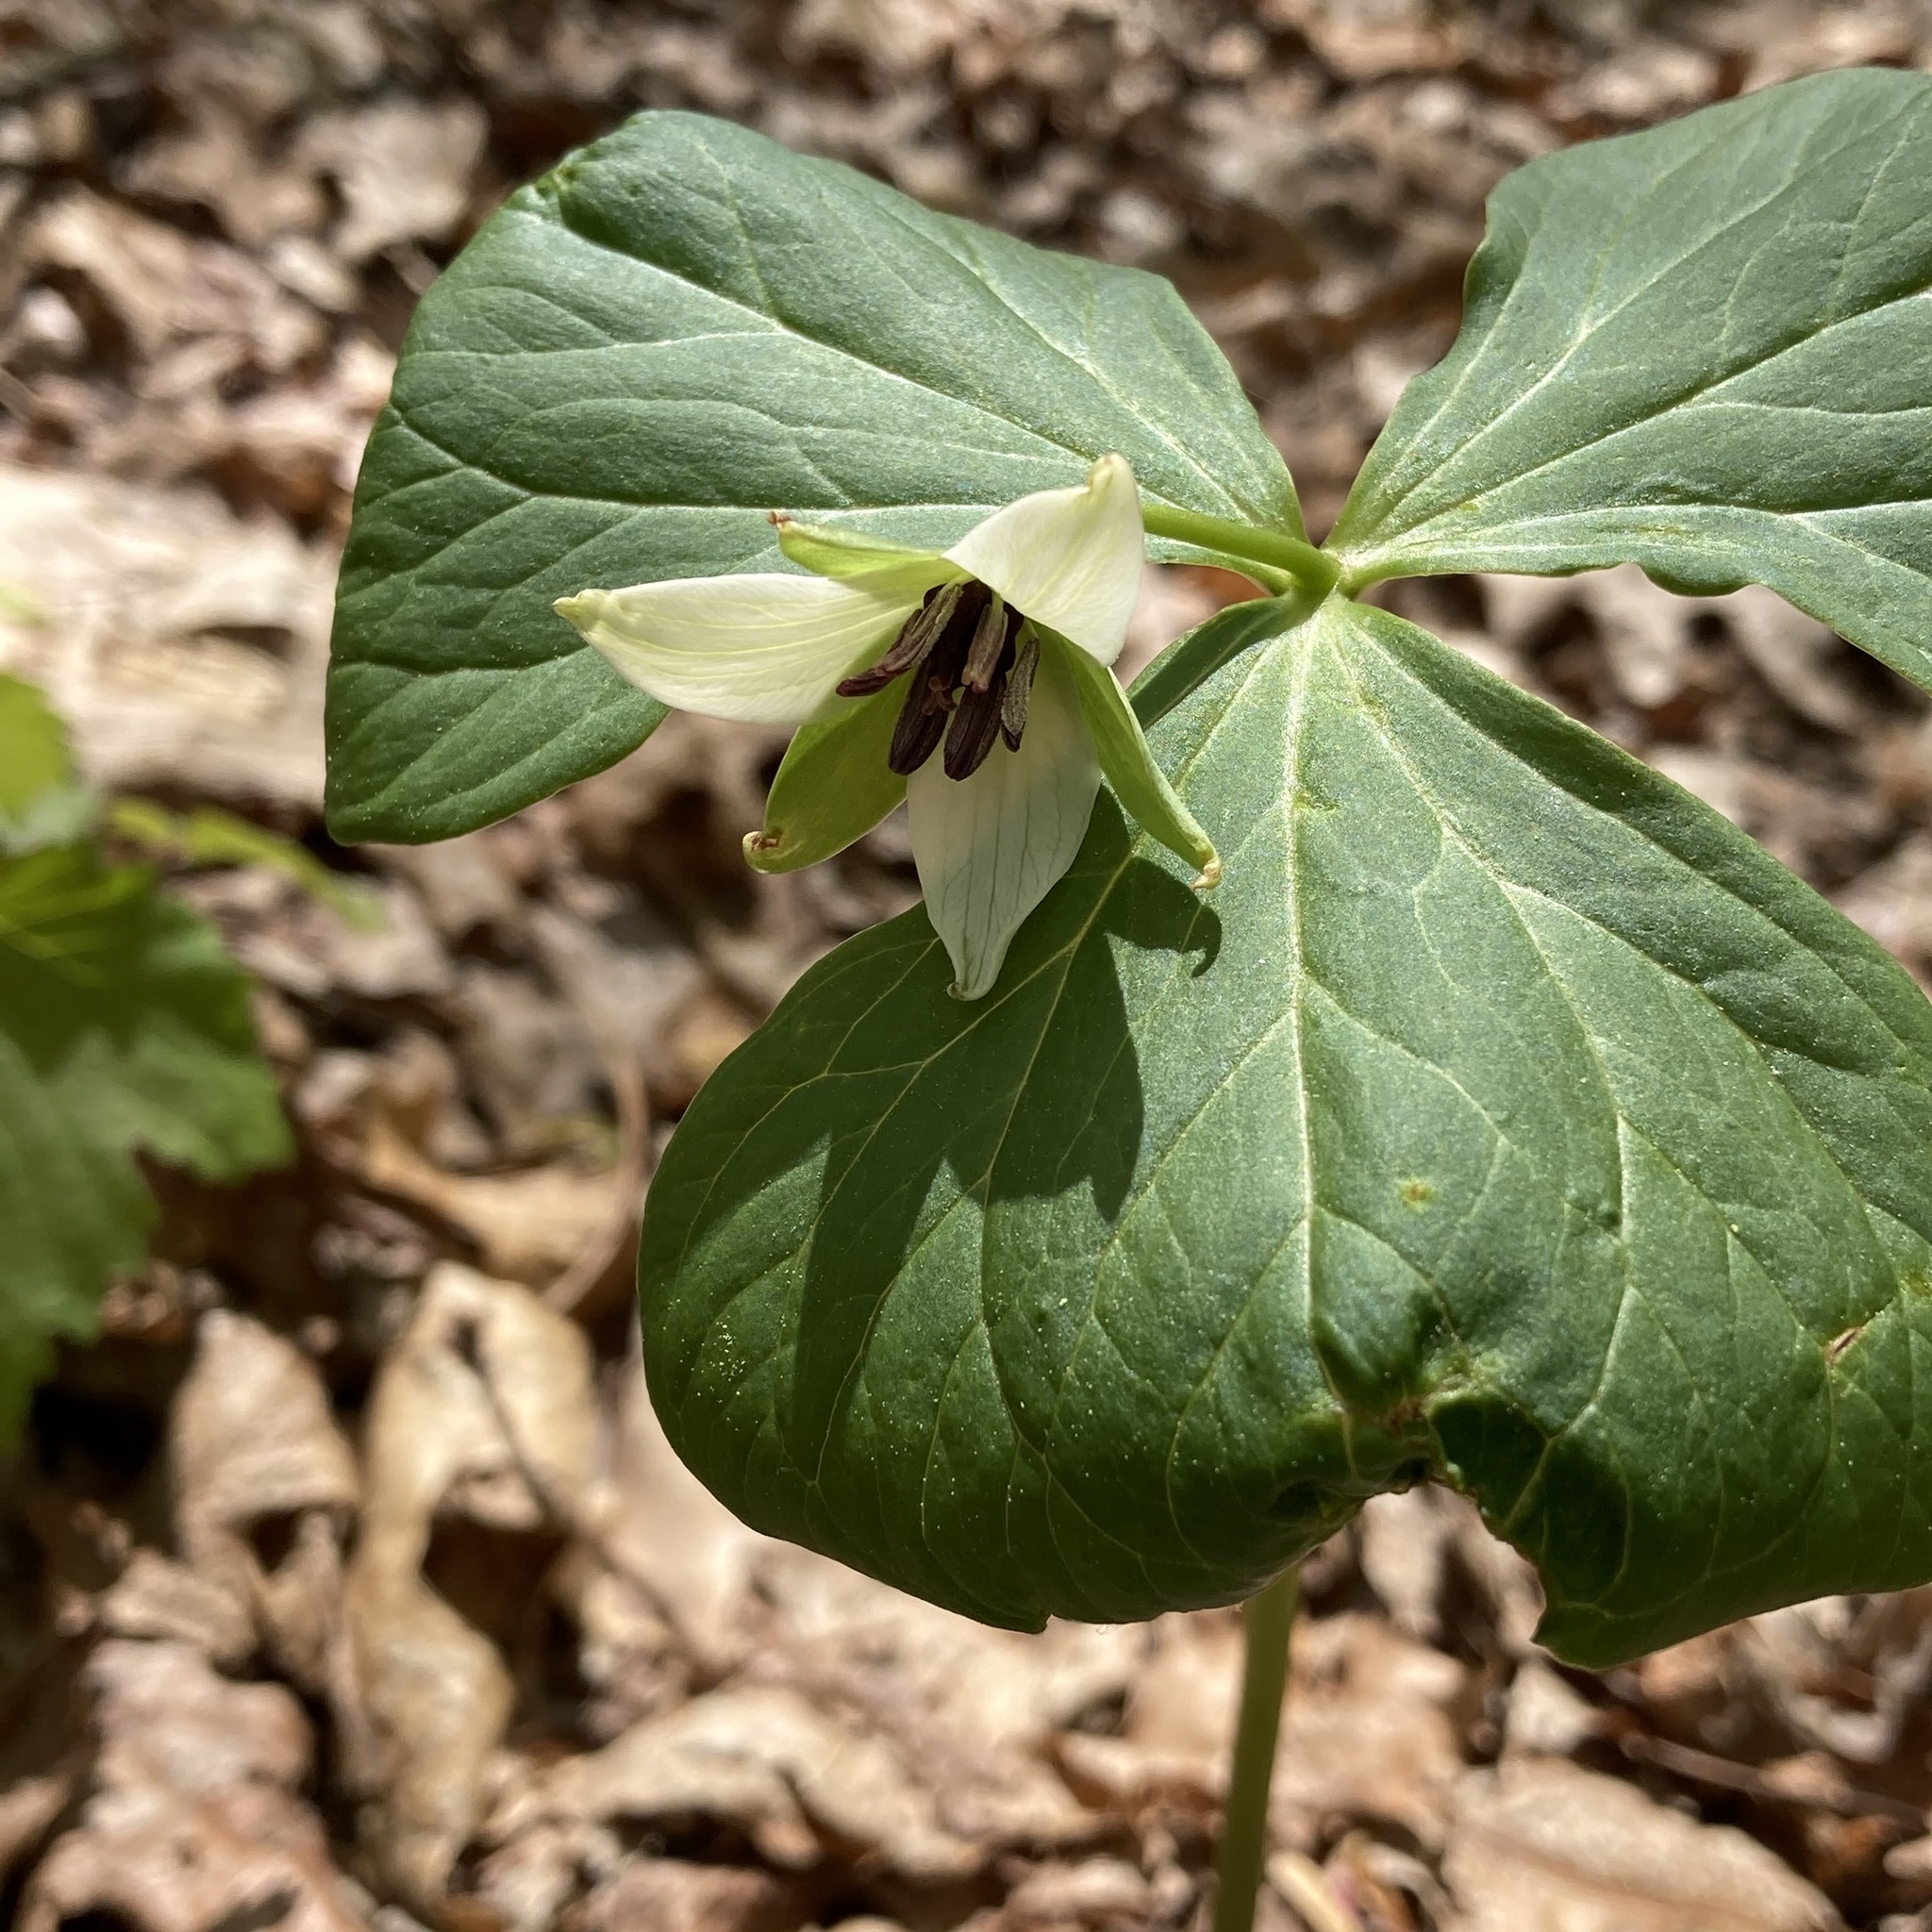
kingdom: Plantae
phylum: Tracheophyta
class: Liliopsida
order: Liliales
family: Melanthiaceae
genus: Trillium
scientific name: Trillium erectum
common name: Purple trillium
